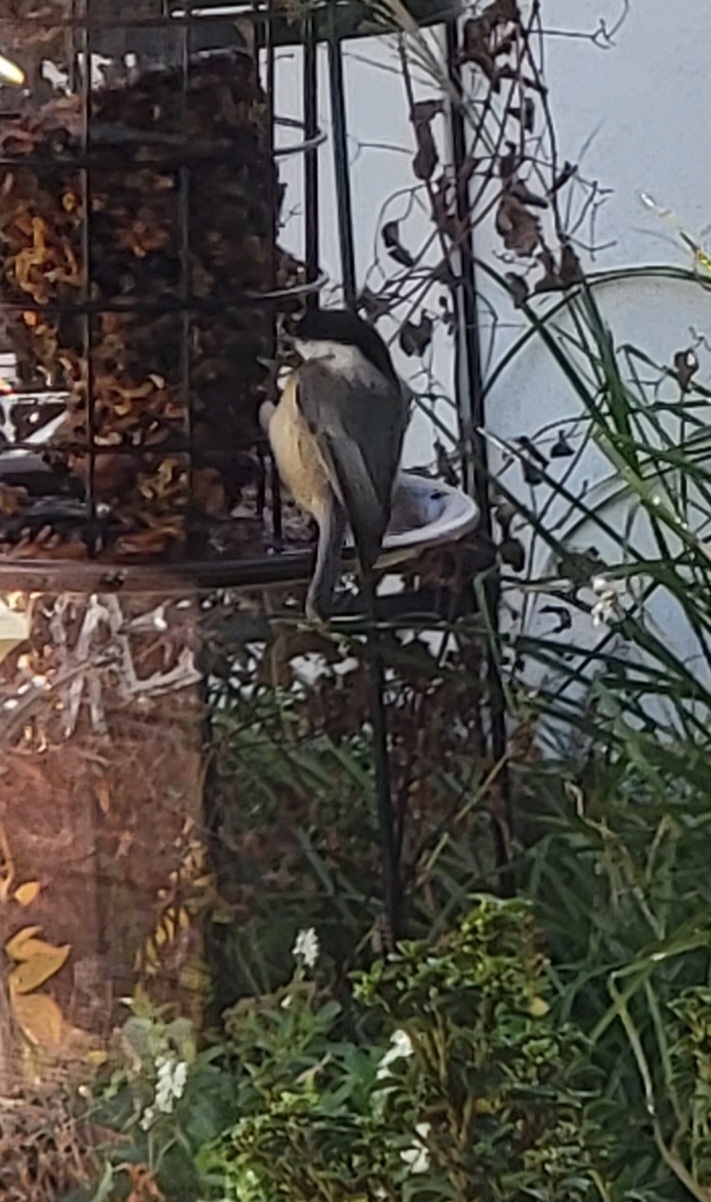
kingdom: Animalia
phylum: Chordata
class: Aves
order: Passeriformes
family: Paridae
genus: Poecile
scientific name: Poecile carolinensis
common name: Carolina chickadee
